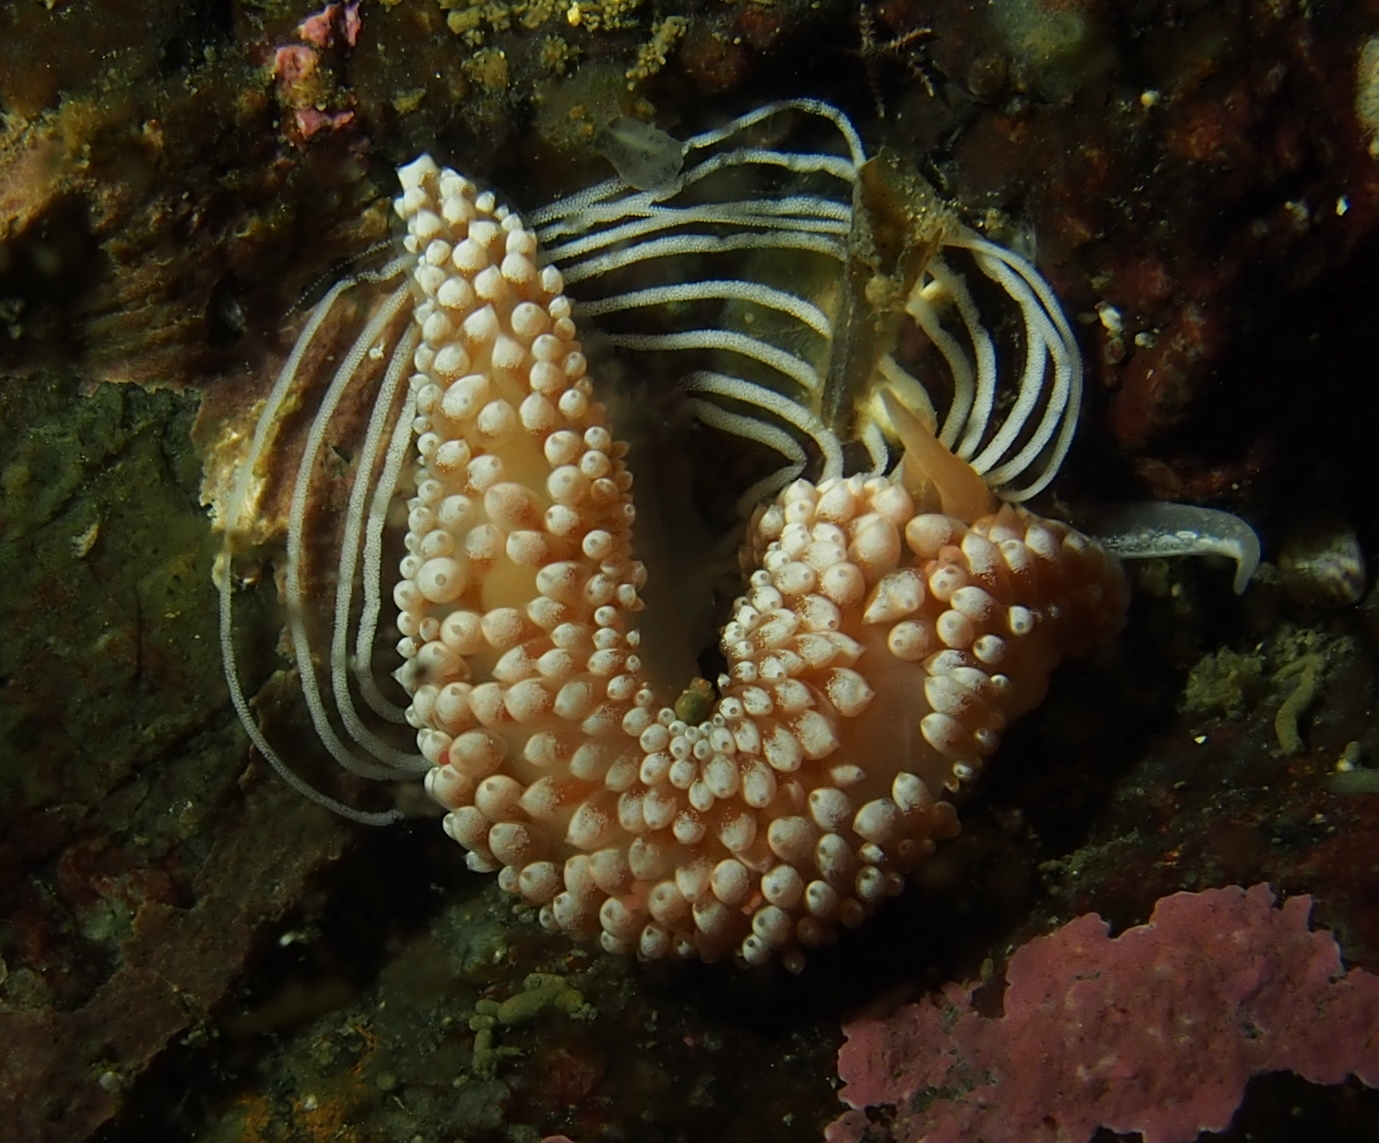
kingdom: Animalia
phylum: Mollusca
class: Gastropoda
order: Nudibranchia
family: Coryphellidae
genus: Coryphella
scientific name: Coryphella verrucosa
